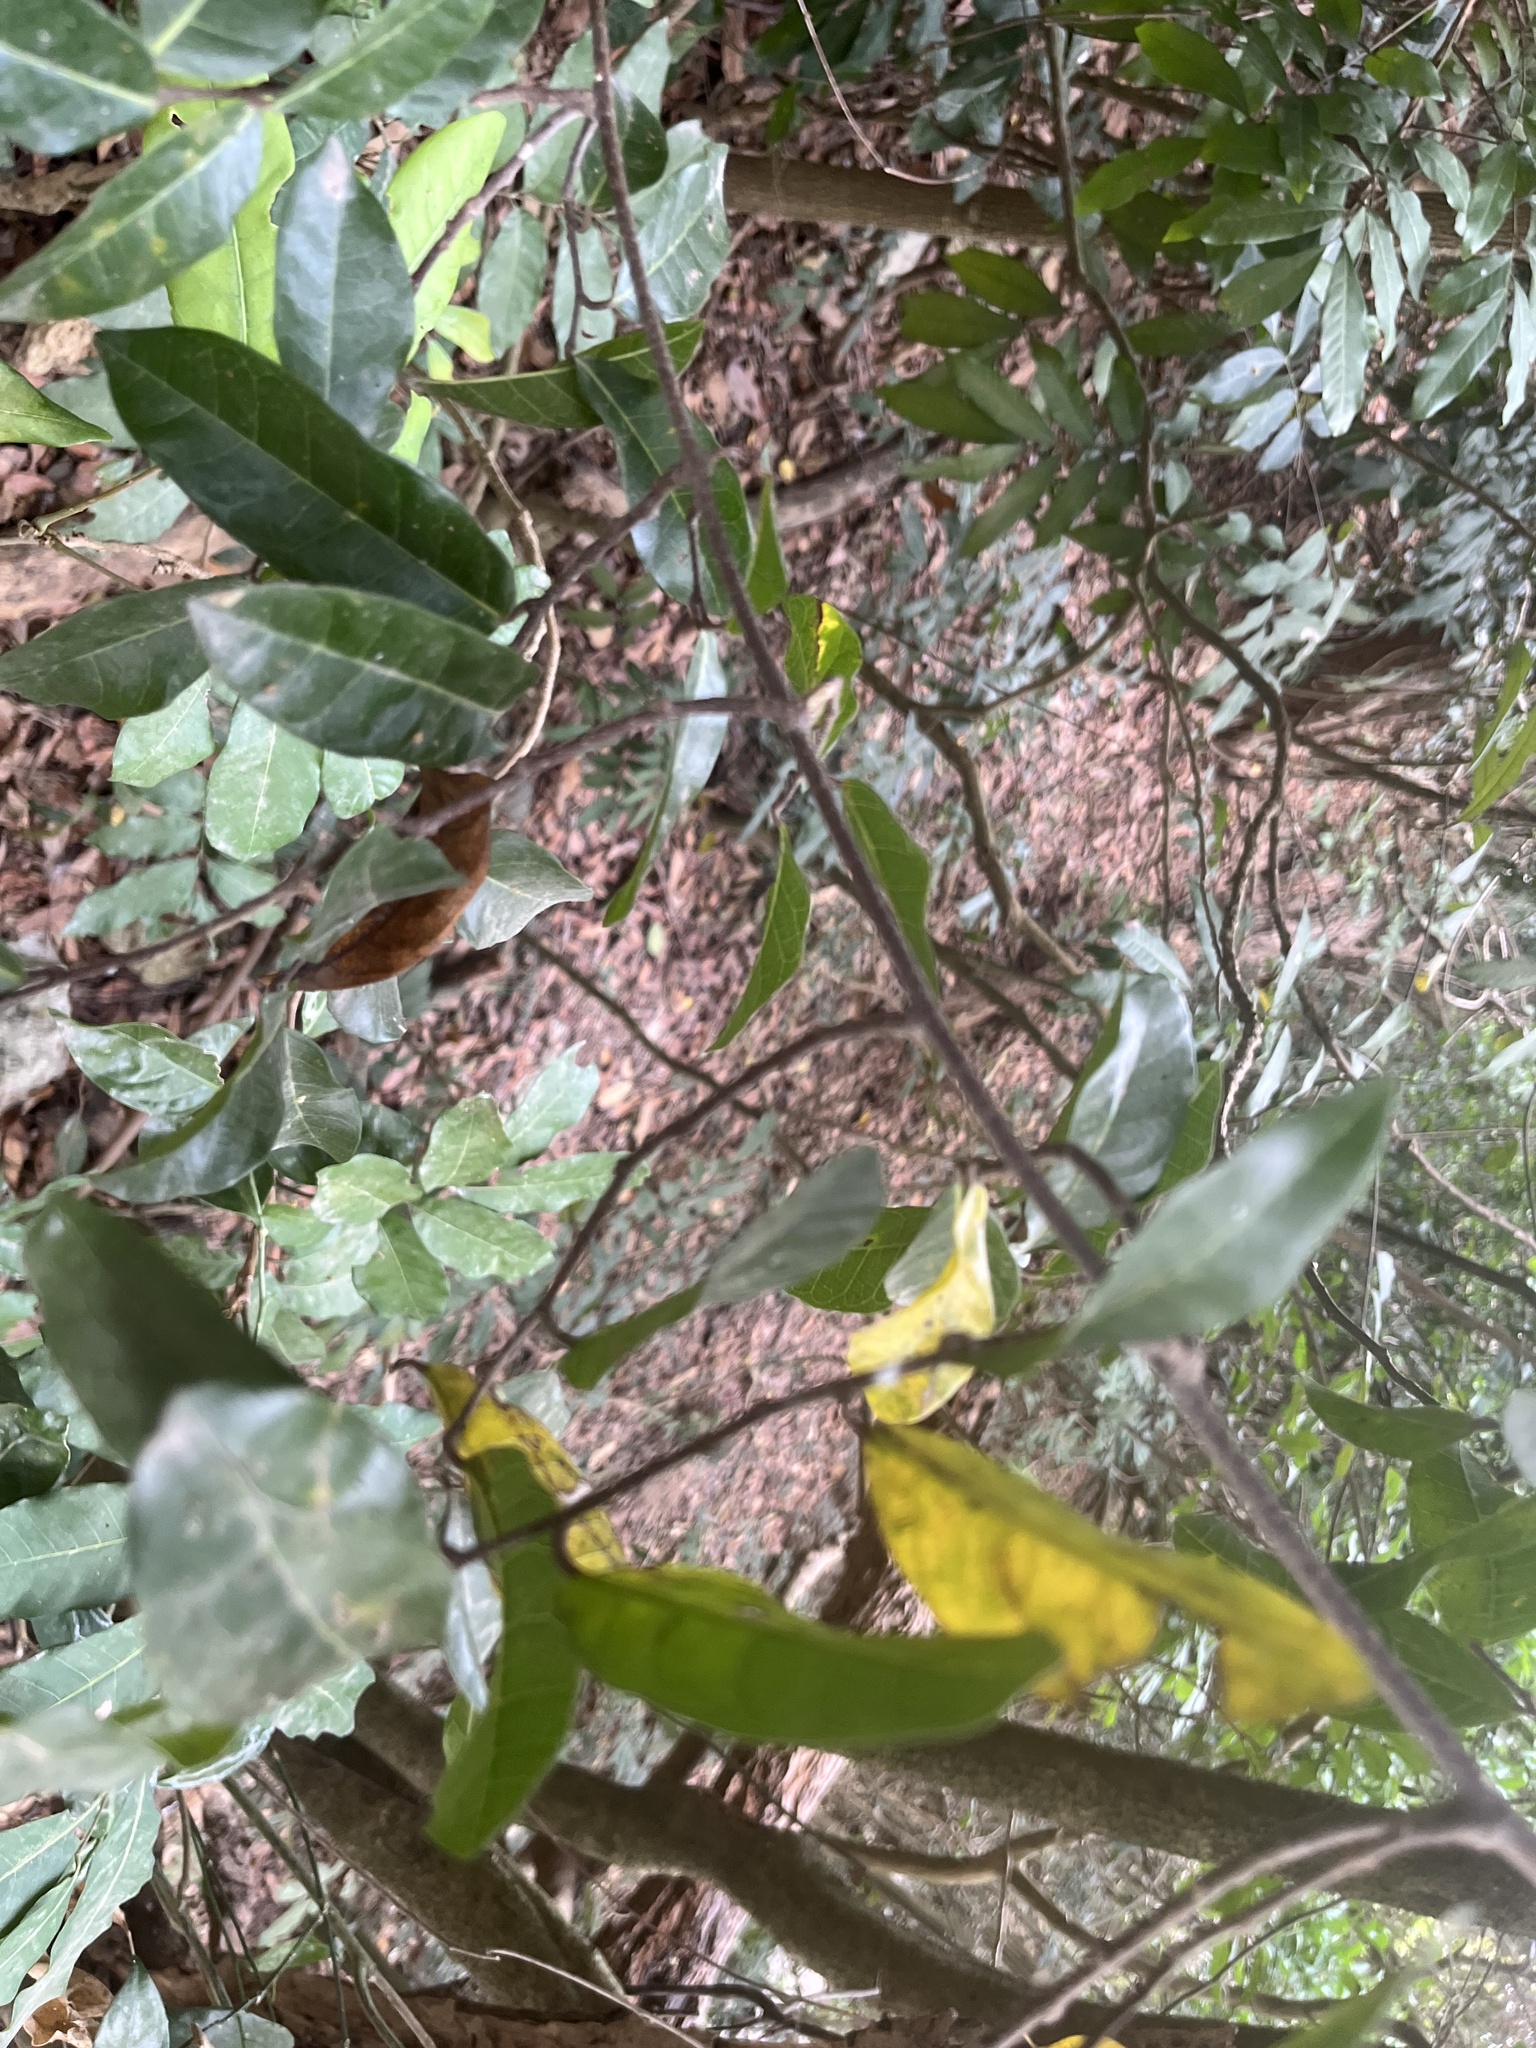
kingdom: Plantae
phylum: Tracheophyta
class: Magnoliopsida
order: Rosales
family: Moraceae
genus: Malaisia
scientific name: Malaisia scandens
